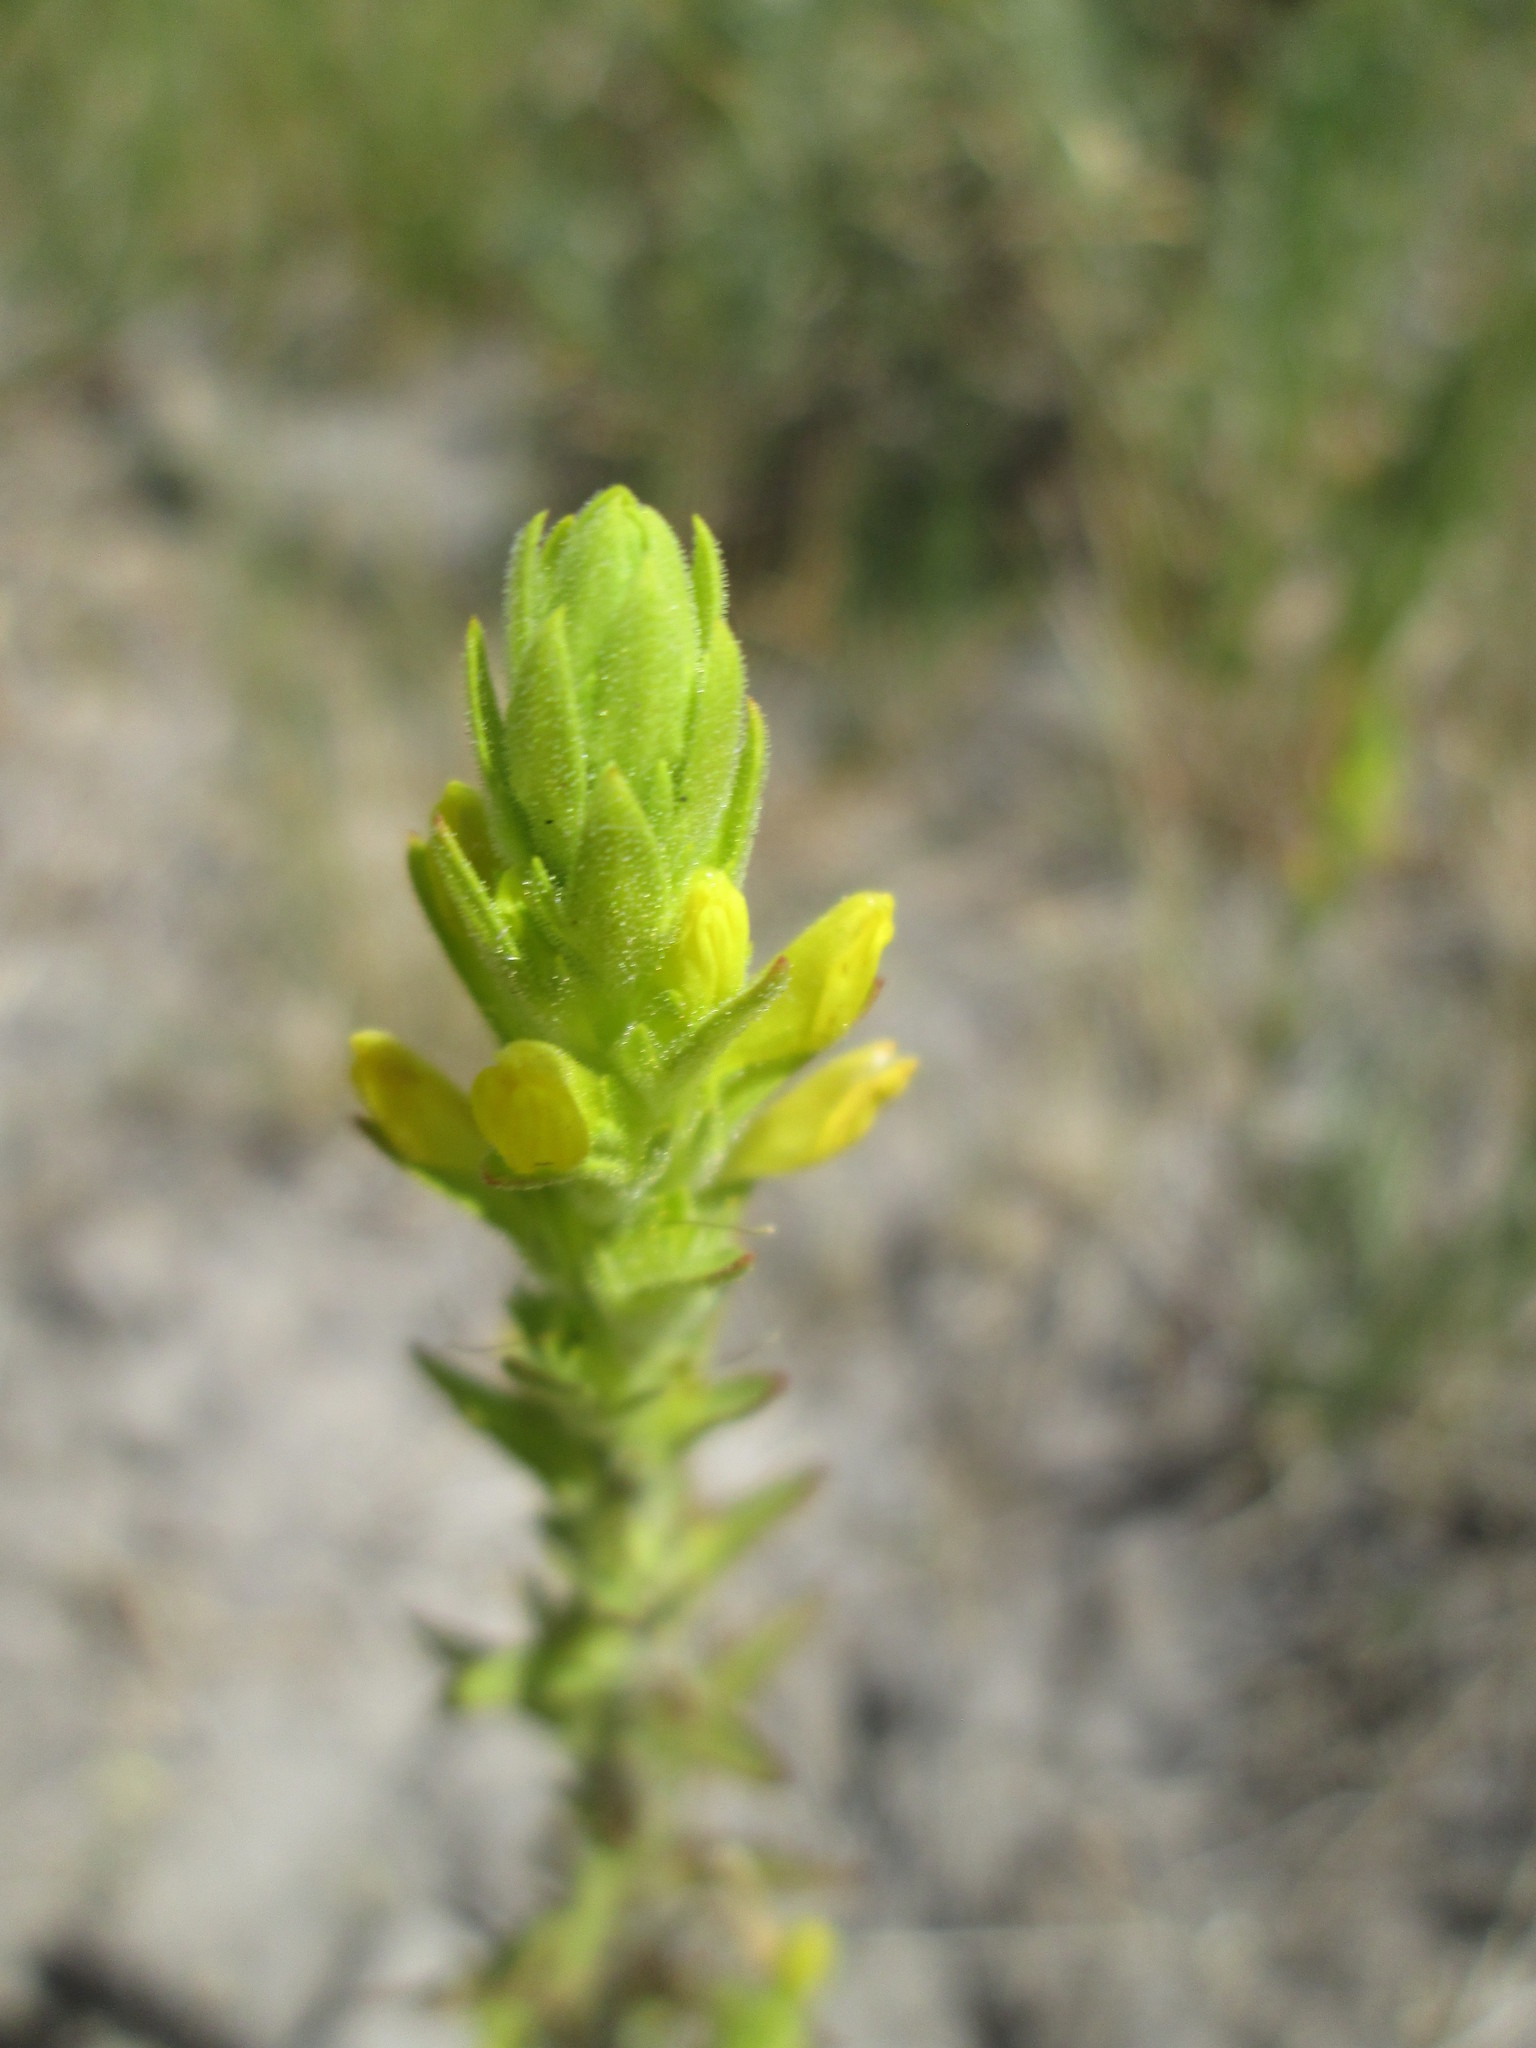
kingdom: Plantae
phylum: Tracheophyta
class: Magnoliopsida
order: Lamiales
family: Orobanchaceae
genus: Orthocarpus
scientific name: Orthocarpus luteus
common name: Golden-tongue owl's-clover
